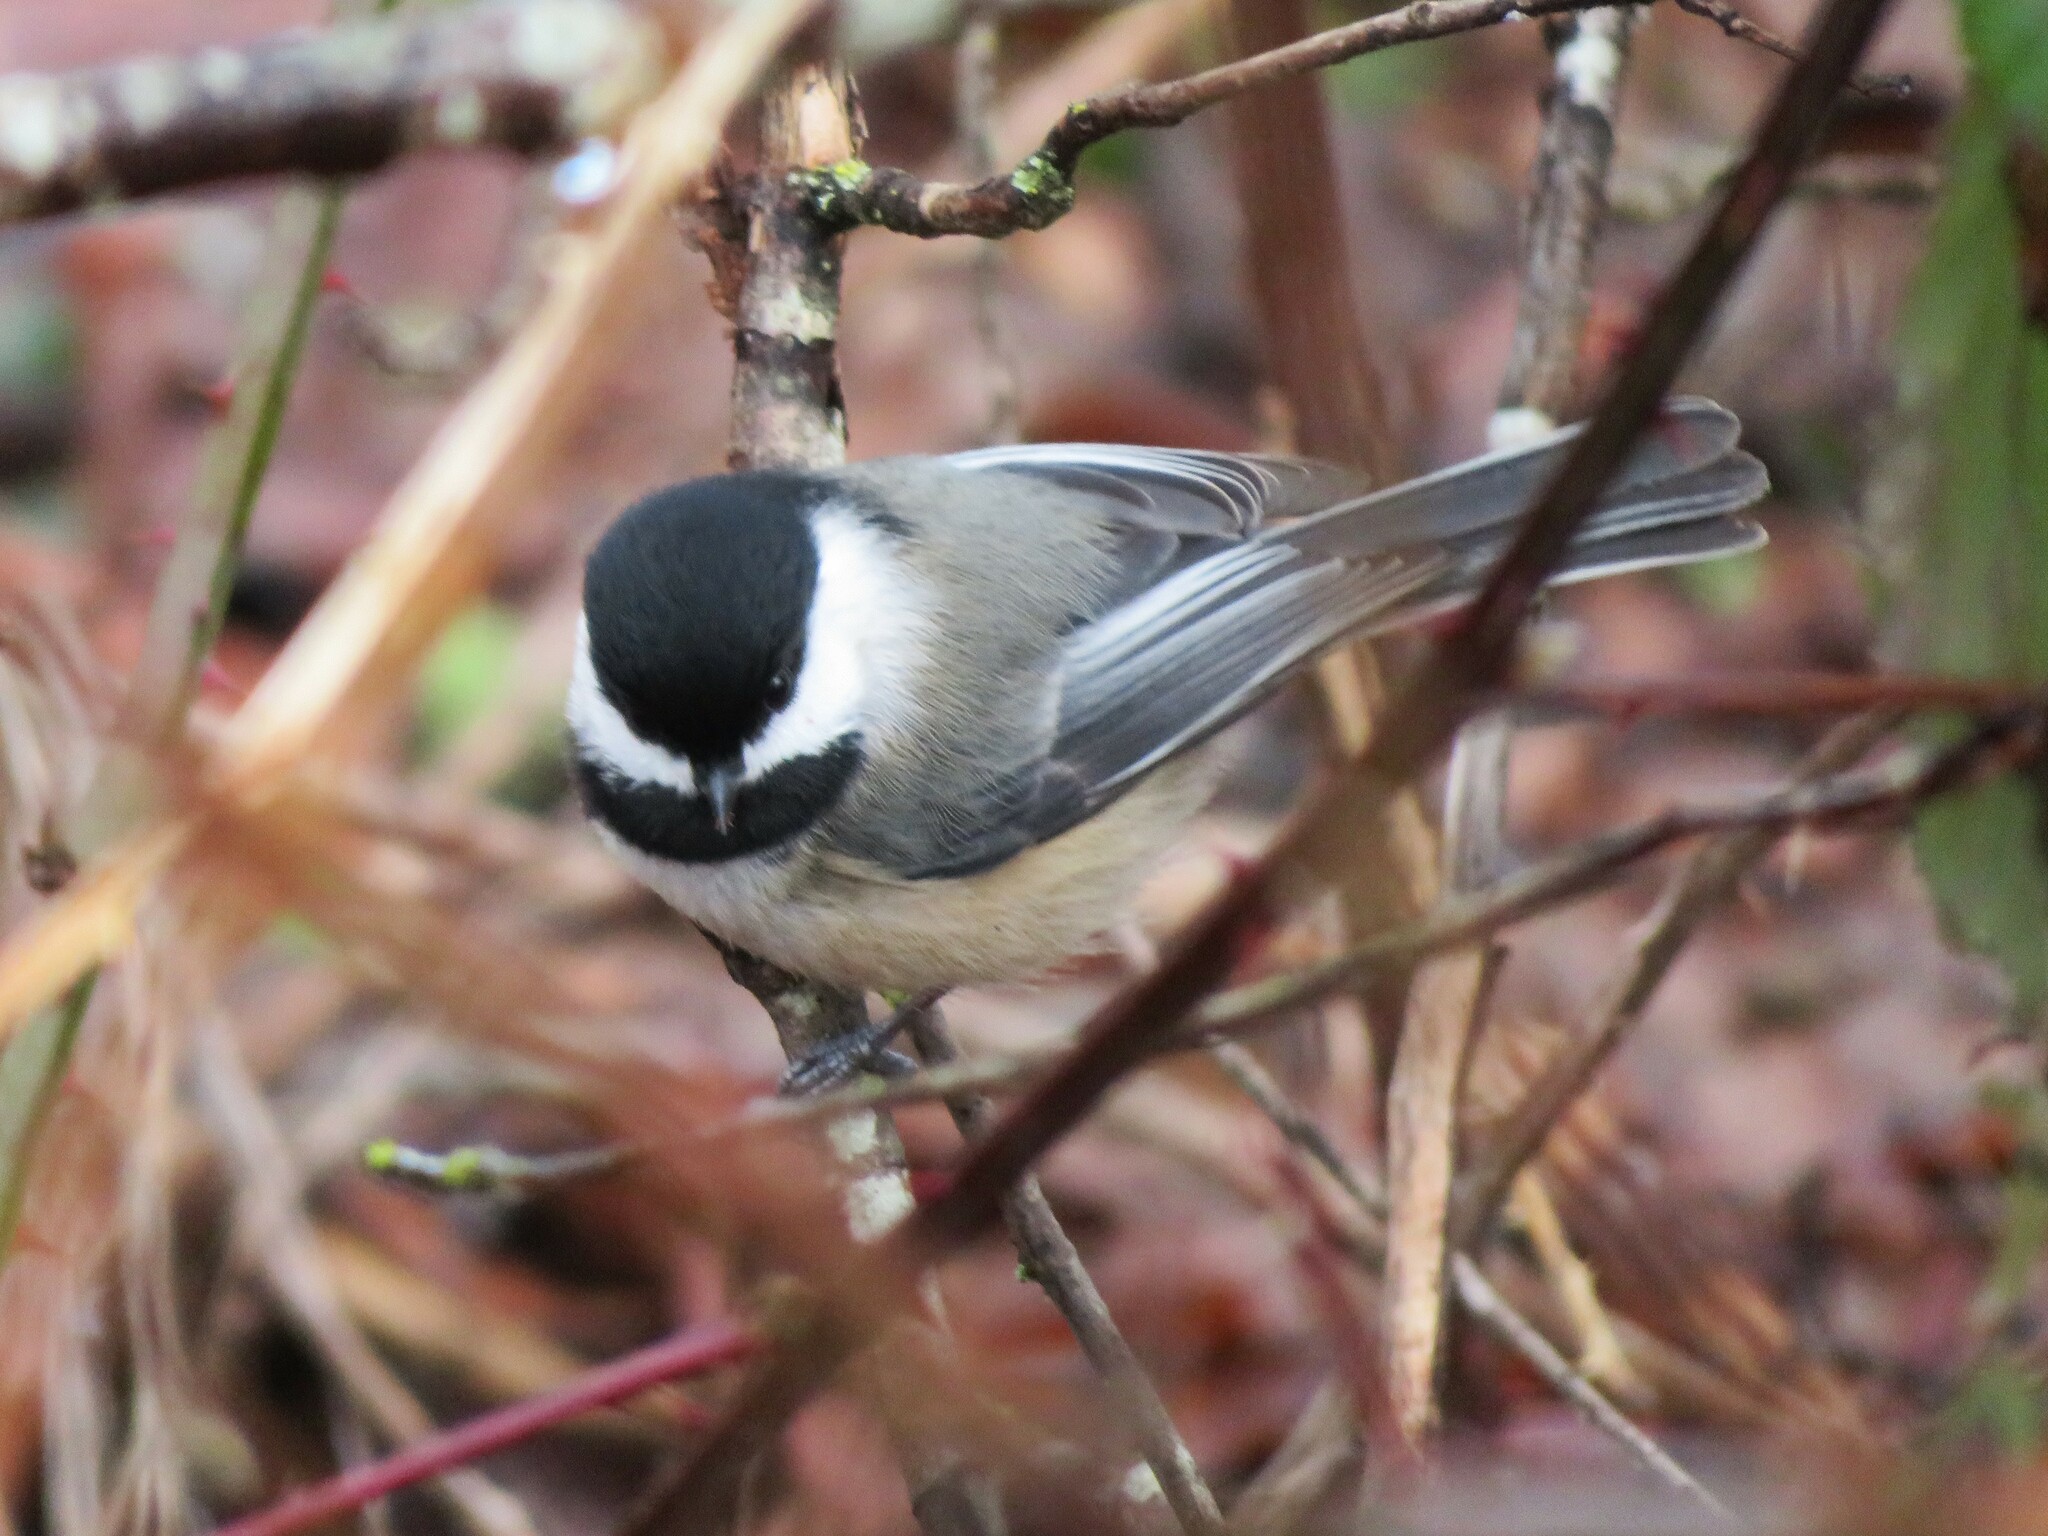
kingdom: Animalia
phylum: Chordata
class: Aves
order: Passeriformes
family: Paridae
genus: Poecile
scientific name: Poecile atricapillus
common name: Black-capped chickadee
